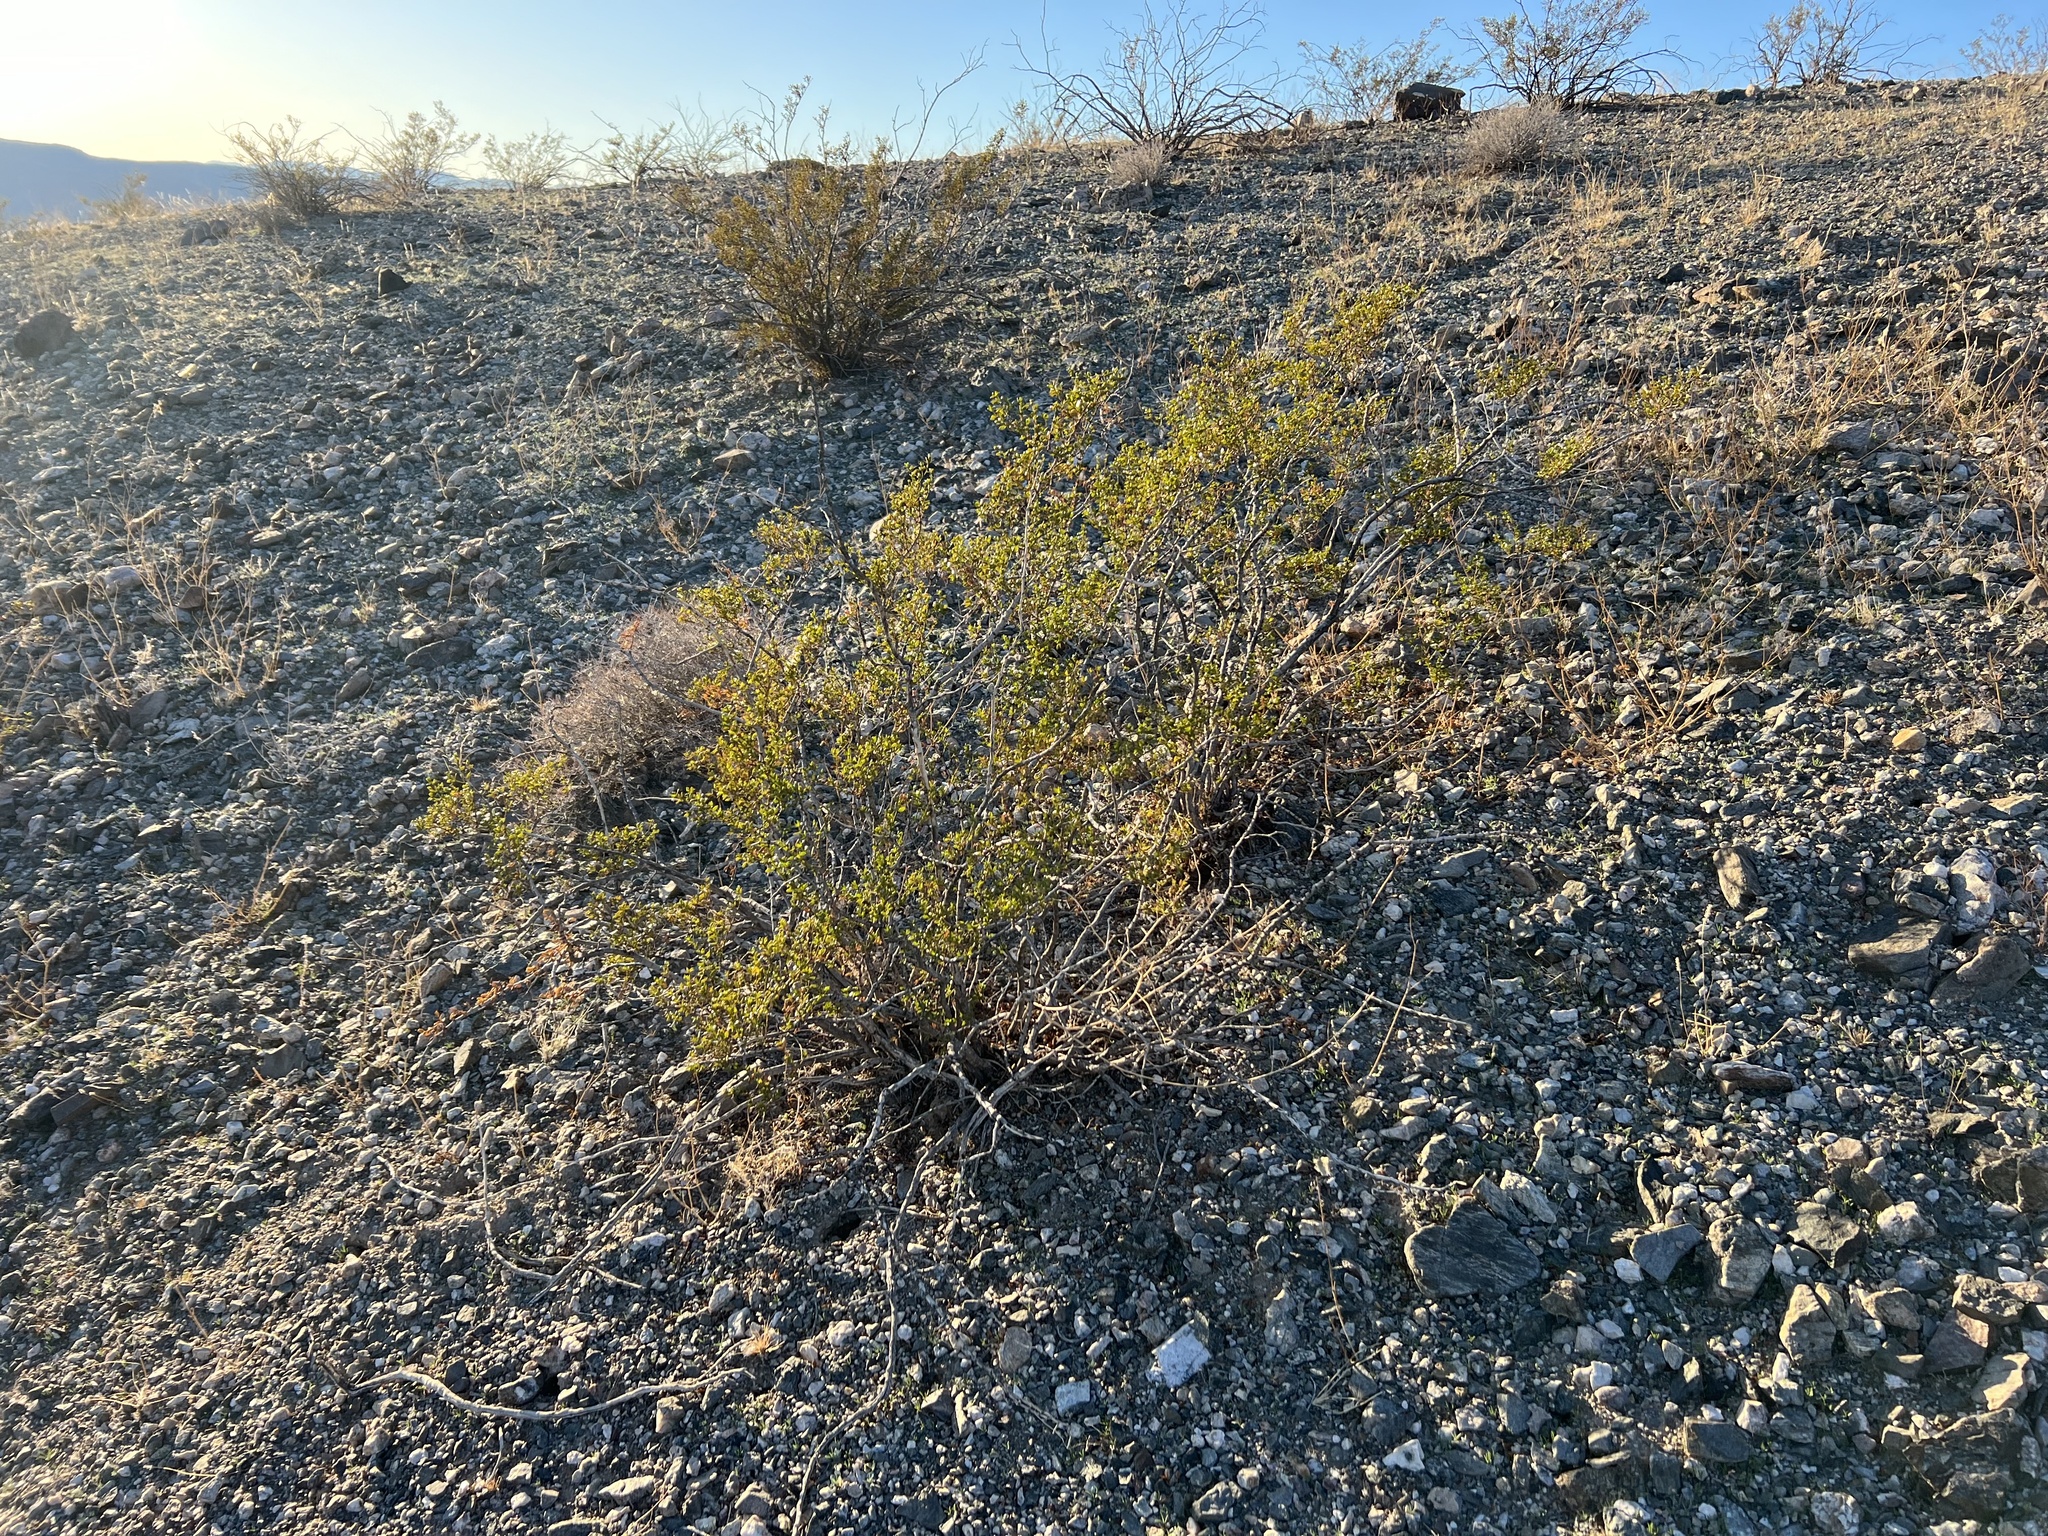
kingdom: Plantae
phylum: Tracheophyta
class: Magnoliopsida
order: Zygophyllales
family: Zygophyllaceae
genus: Larrea
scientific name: Larrea tridentata
